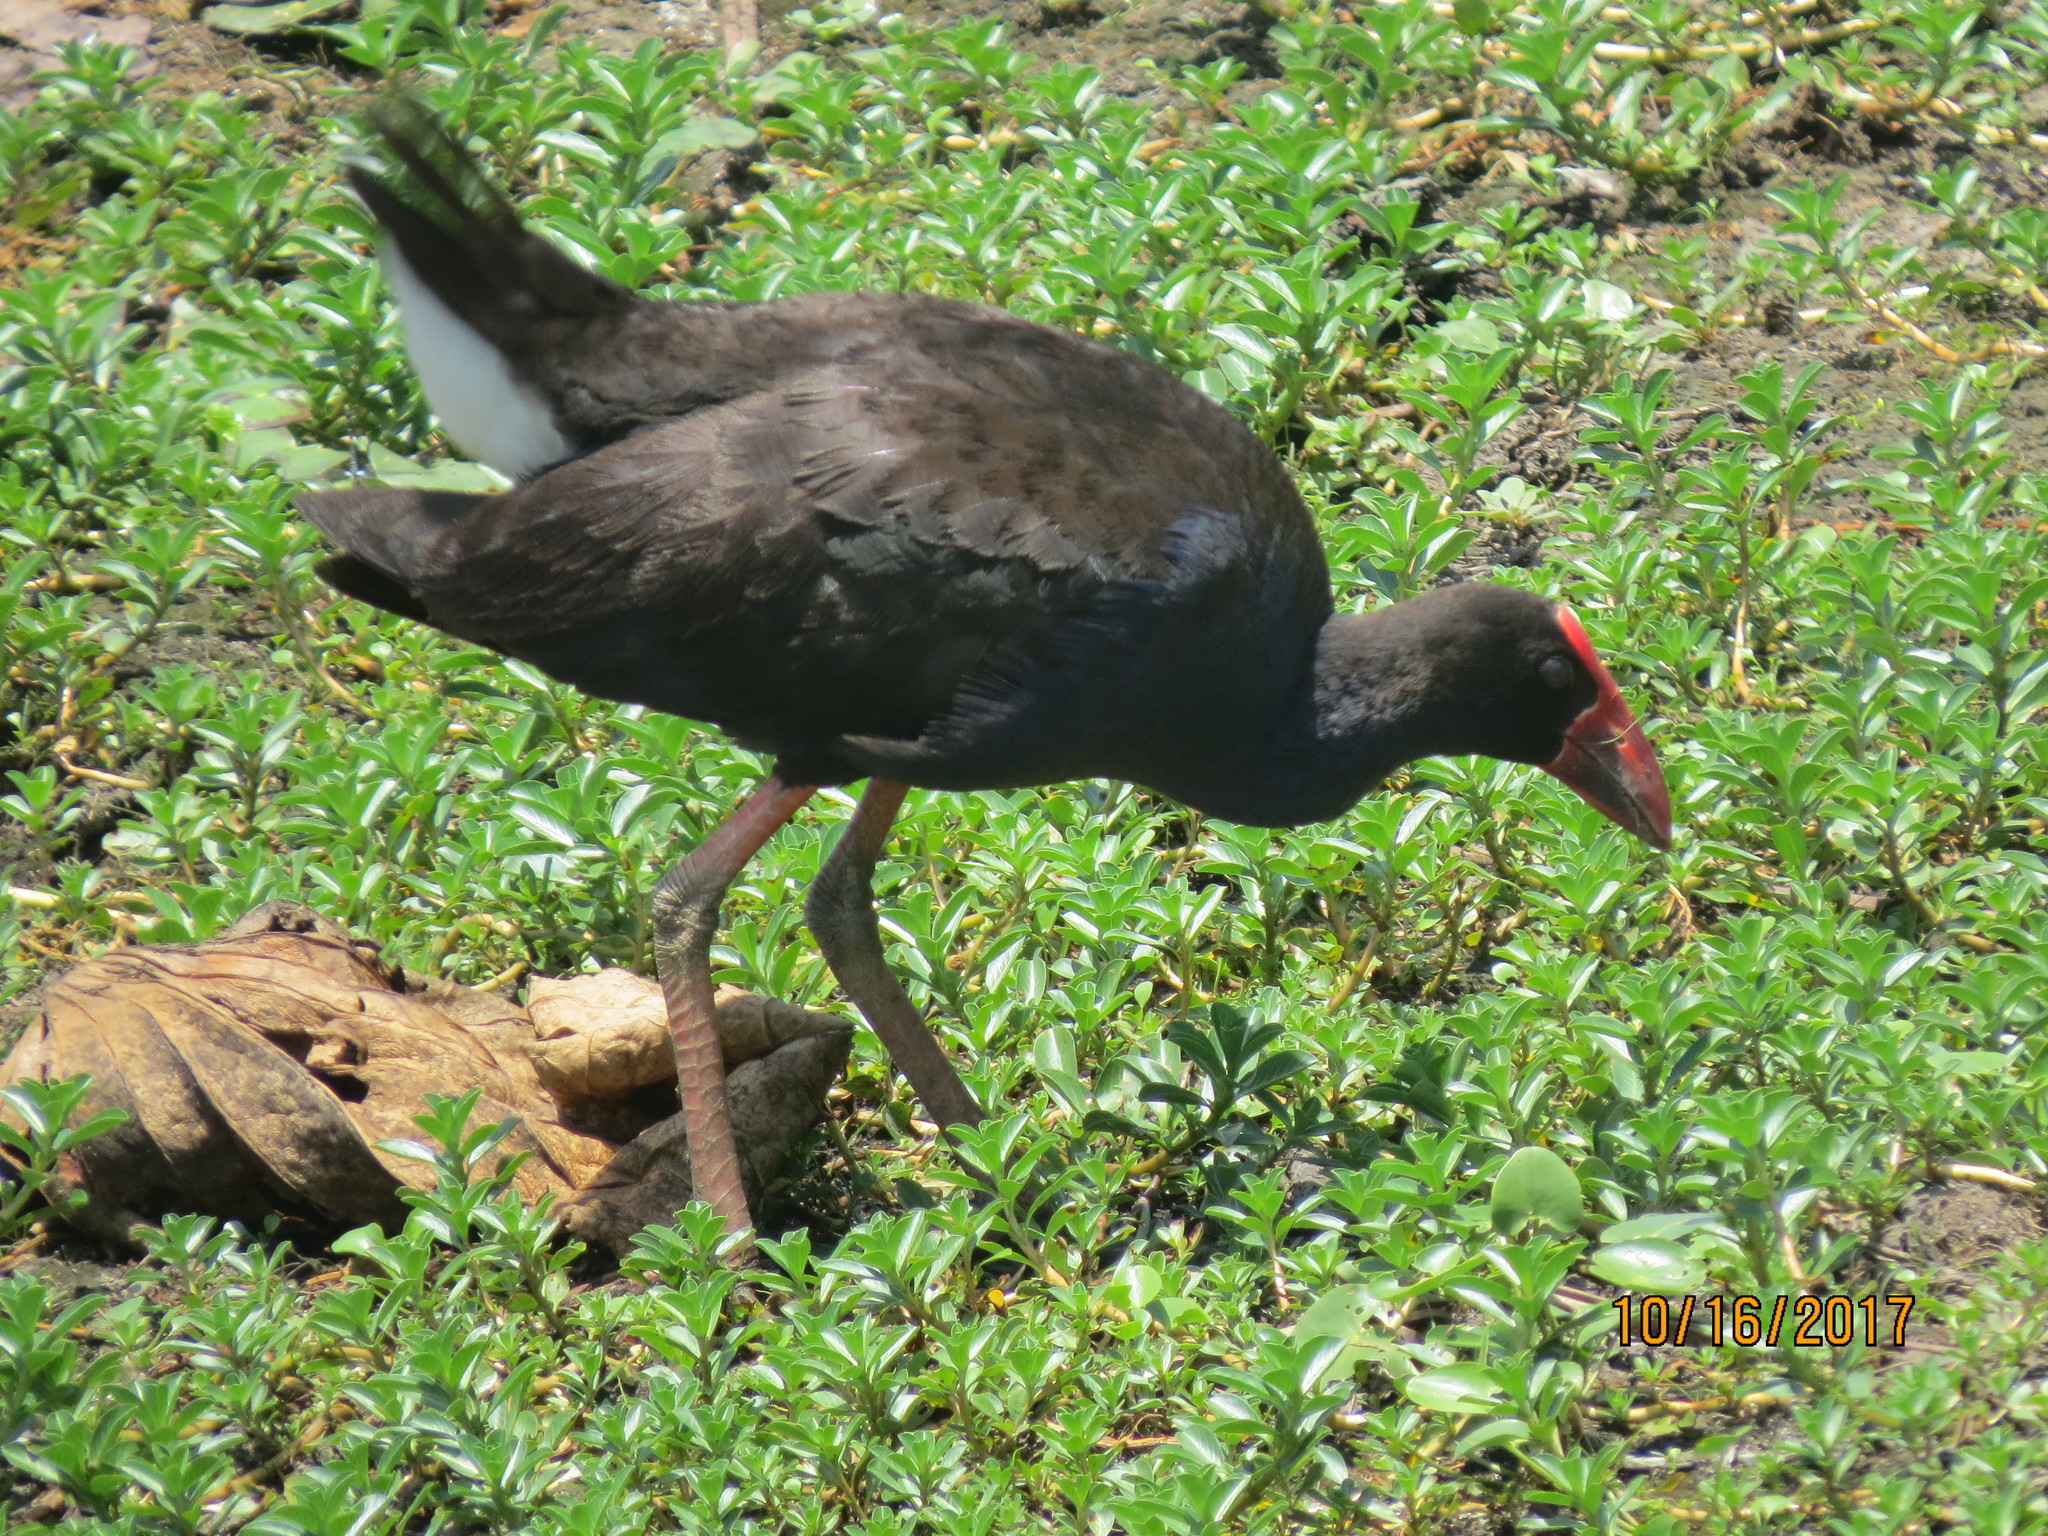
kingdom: Animalia
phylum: Chordata
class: Aves
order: Gruiformes
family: Rallidae
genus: Porphyrio
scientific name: Porphyrio melanotus
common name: Australasian swamphen
